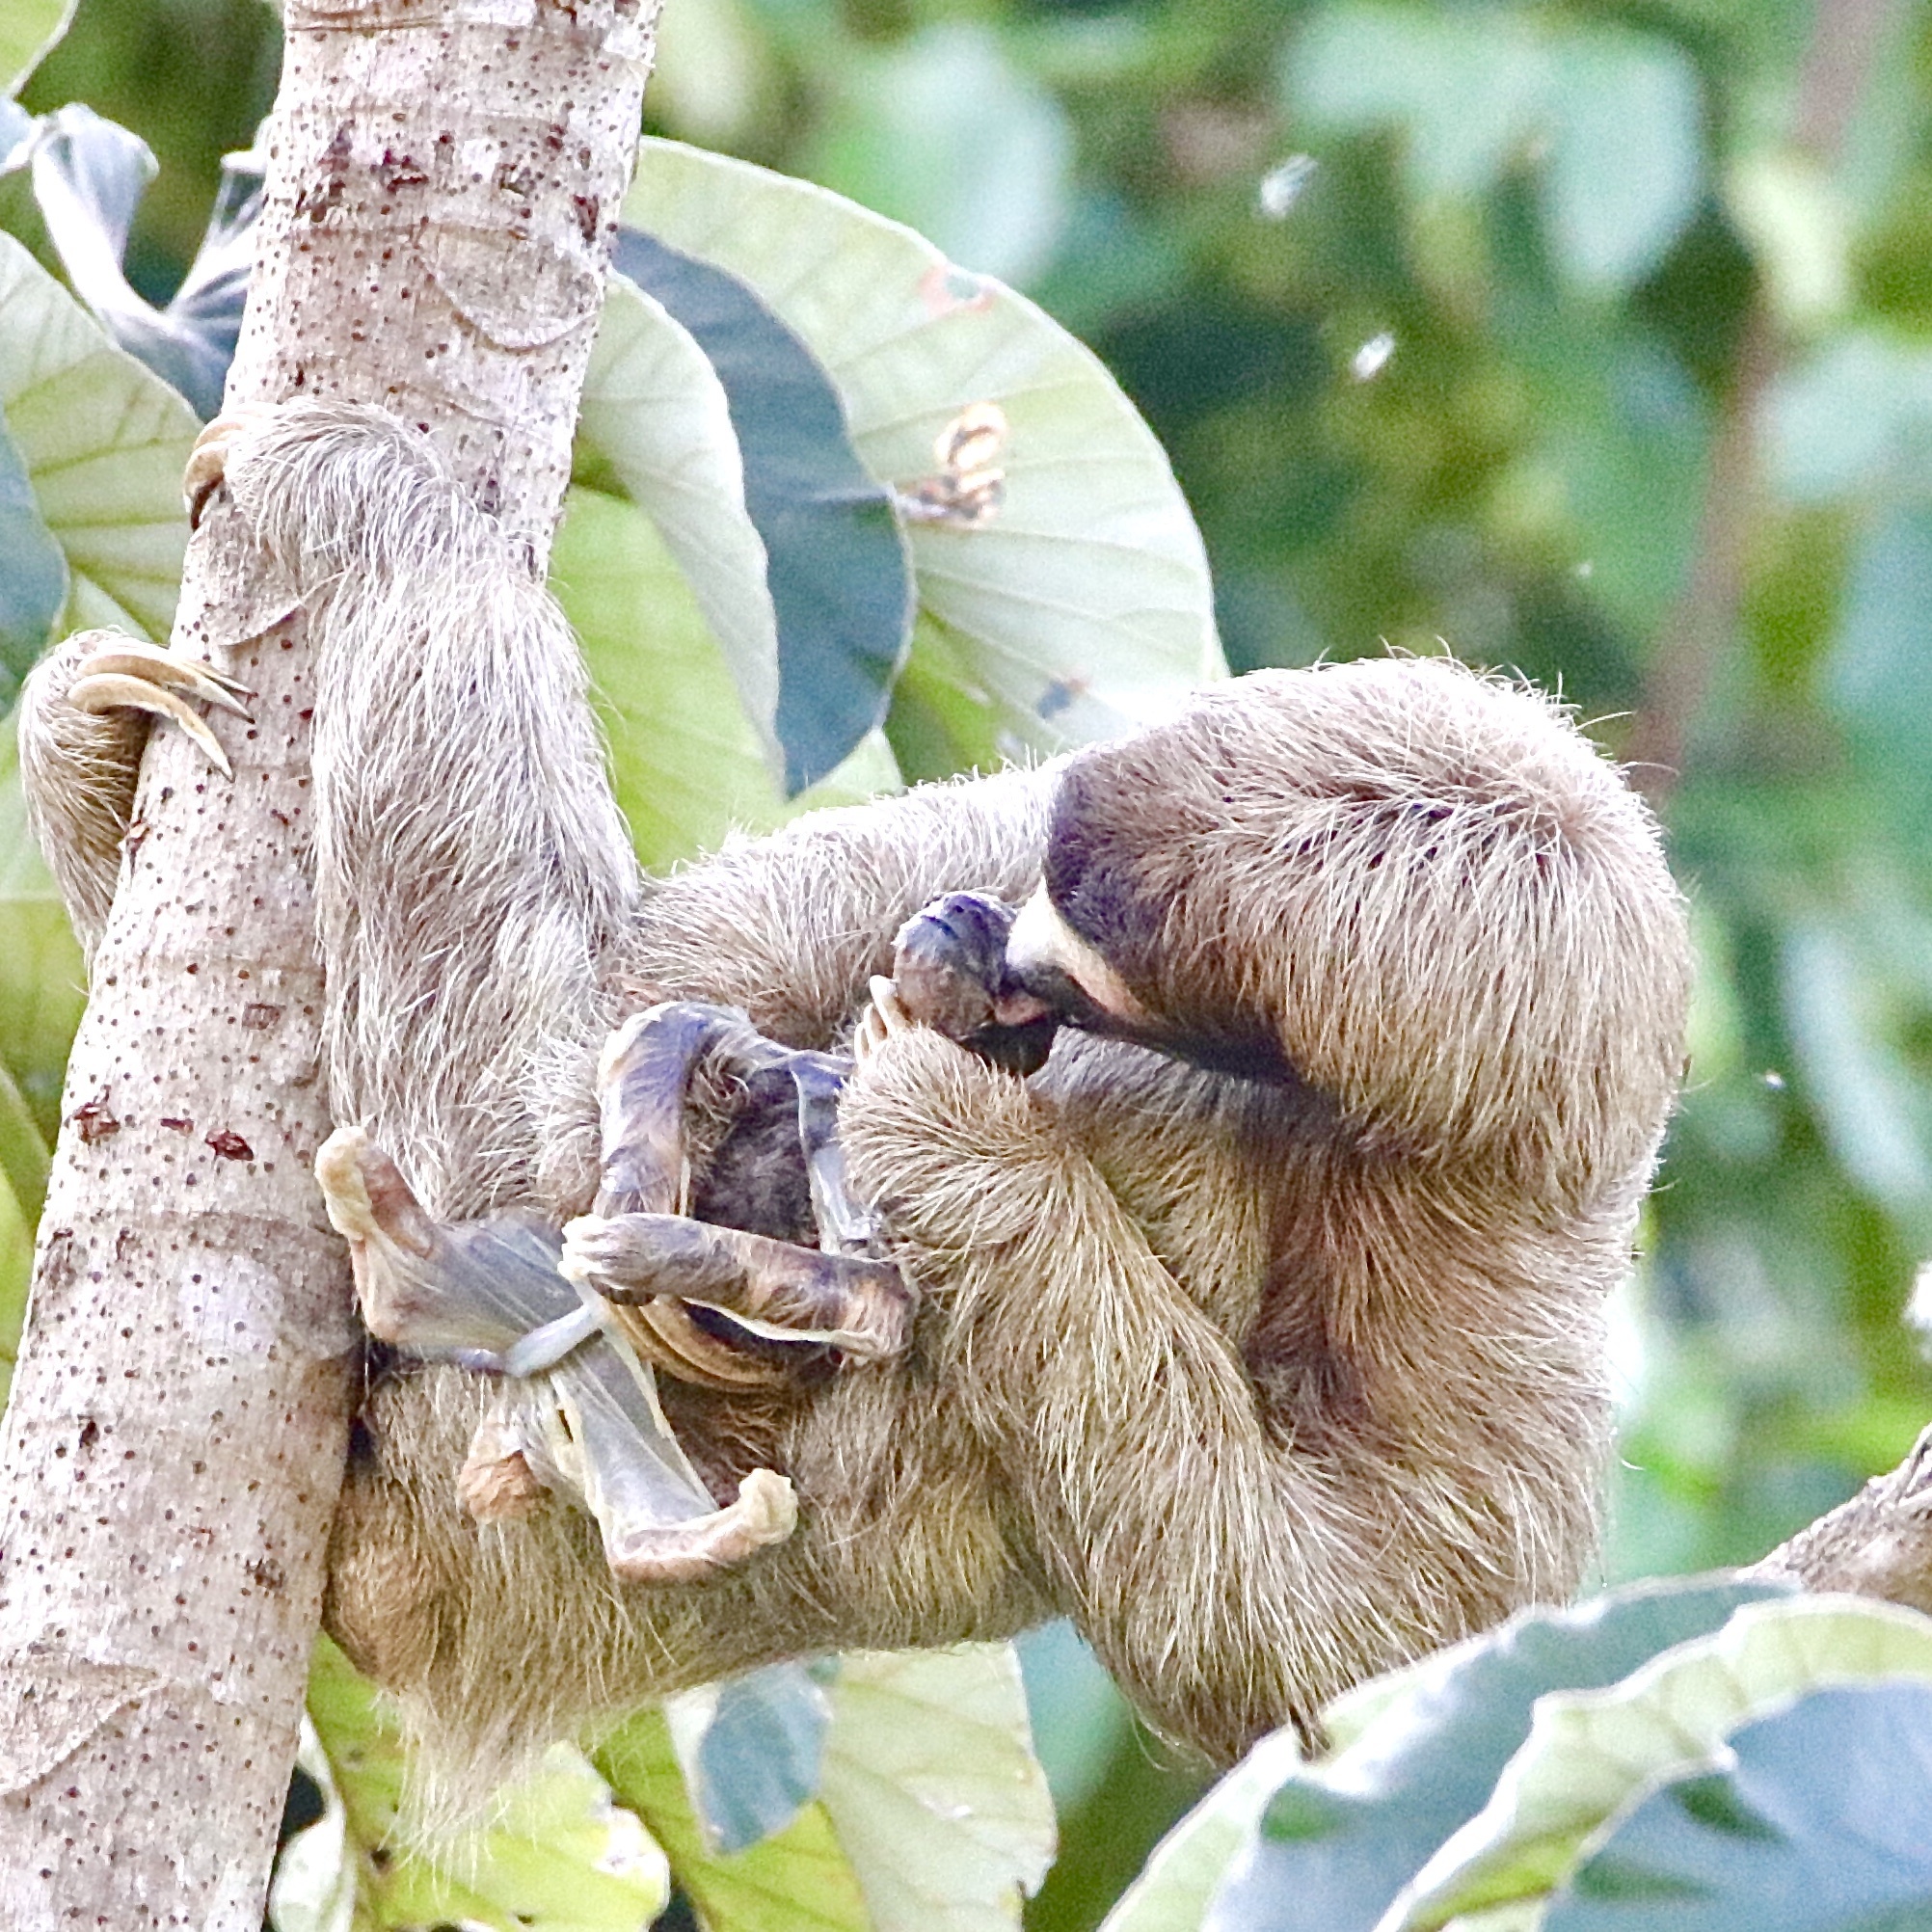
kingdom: Animalia
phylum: Chordata
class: Mammalia
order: Pilosa
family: Bradypodidae
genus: Bradypus
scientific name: Bradypus variegatus
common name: Brown-throated three-toed sloth
